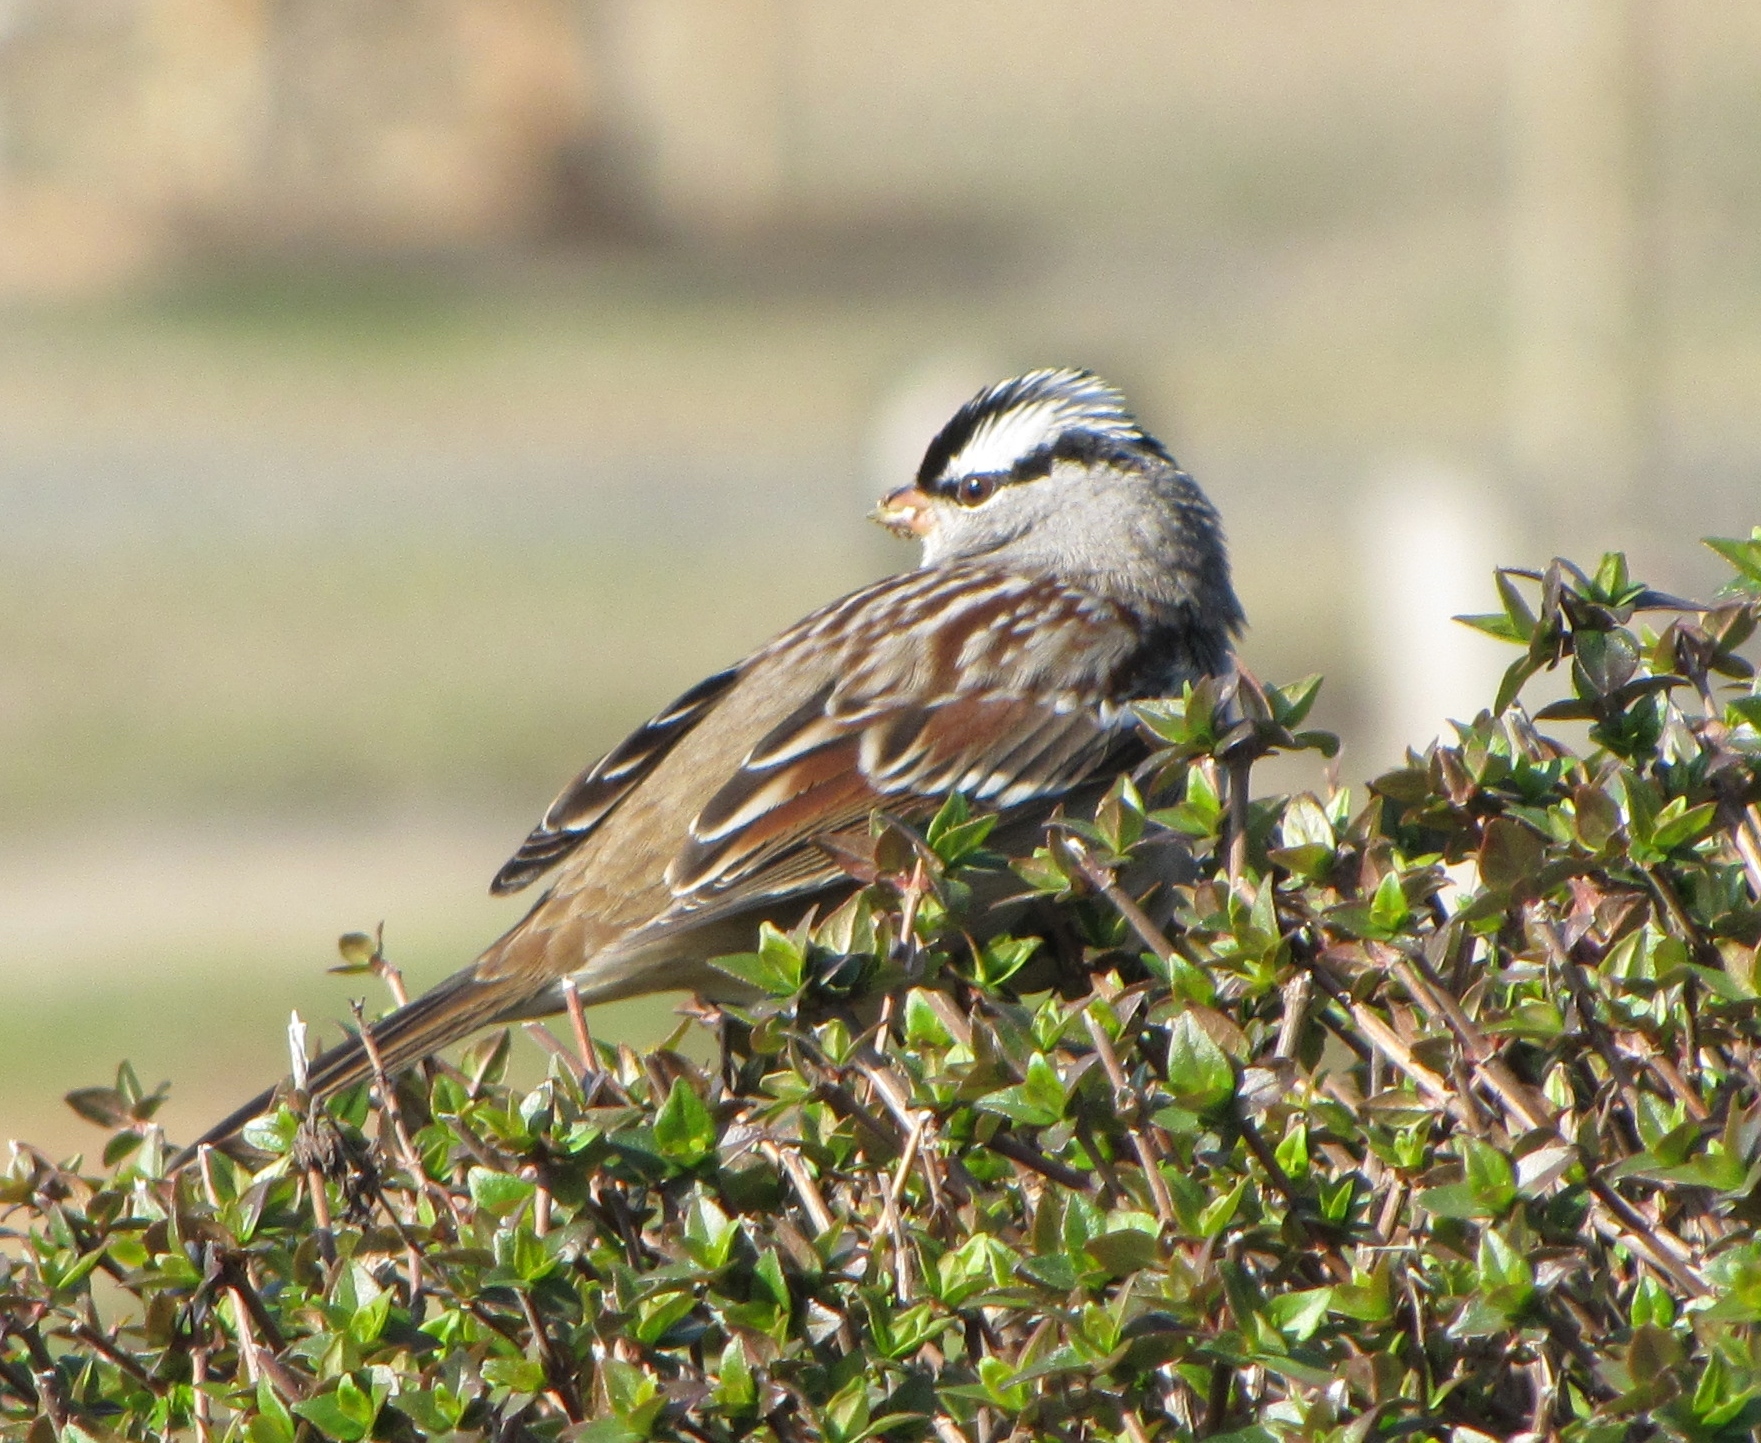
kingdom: Animalia
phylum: Chordata
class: Aves
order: Passeriformes
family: Passerellidae
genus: Zonotrichia
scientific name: Zonotrichia leucophrys
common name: White-crowned sparrow
